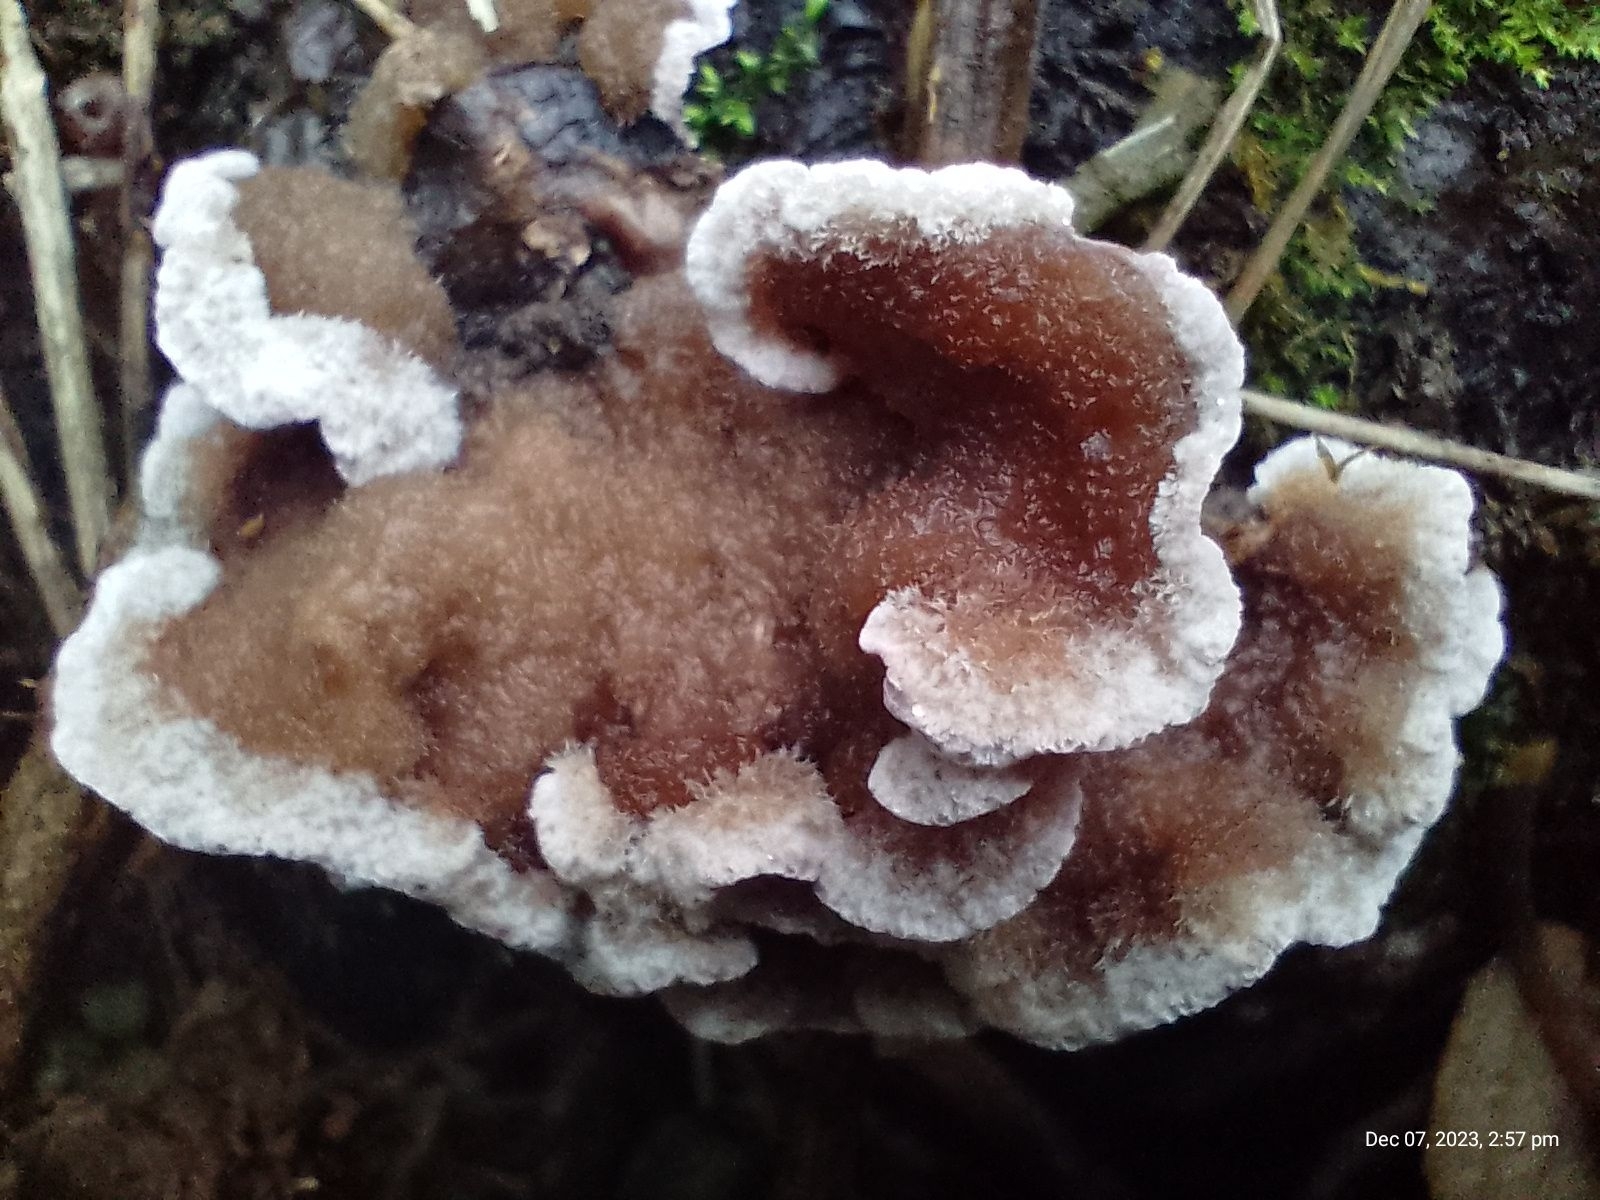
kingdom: Fungi
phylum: Basidiomycota
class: Agaricomycetes
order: Agaricales
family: Cyphellaceae
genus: Chondrostereum
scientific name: Chondrostereum purpureum
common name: Silver leaf disease
